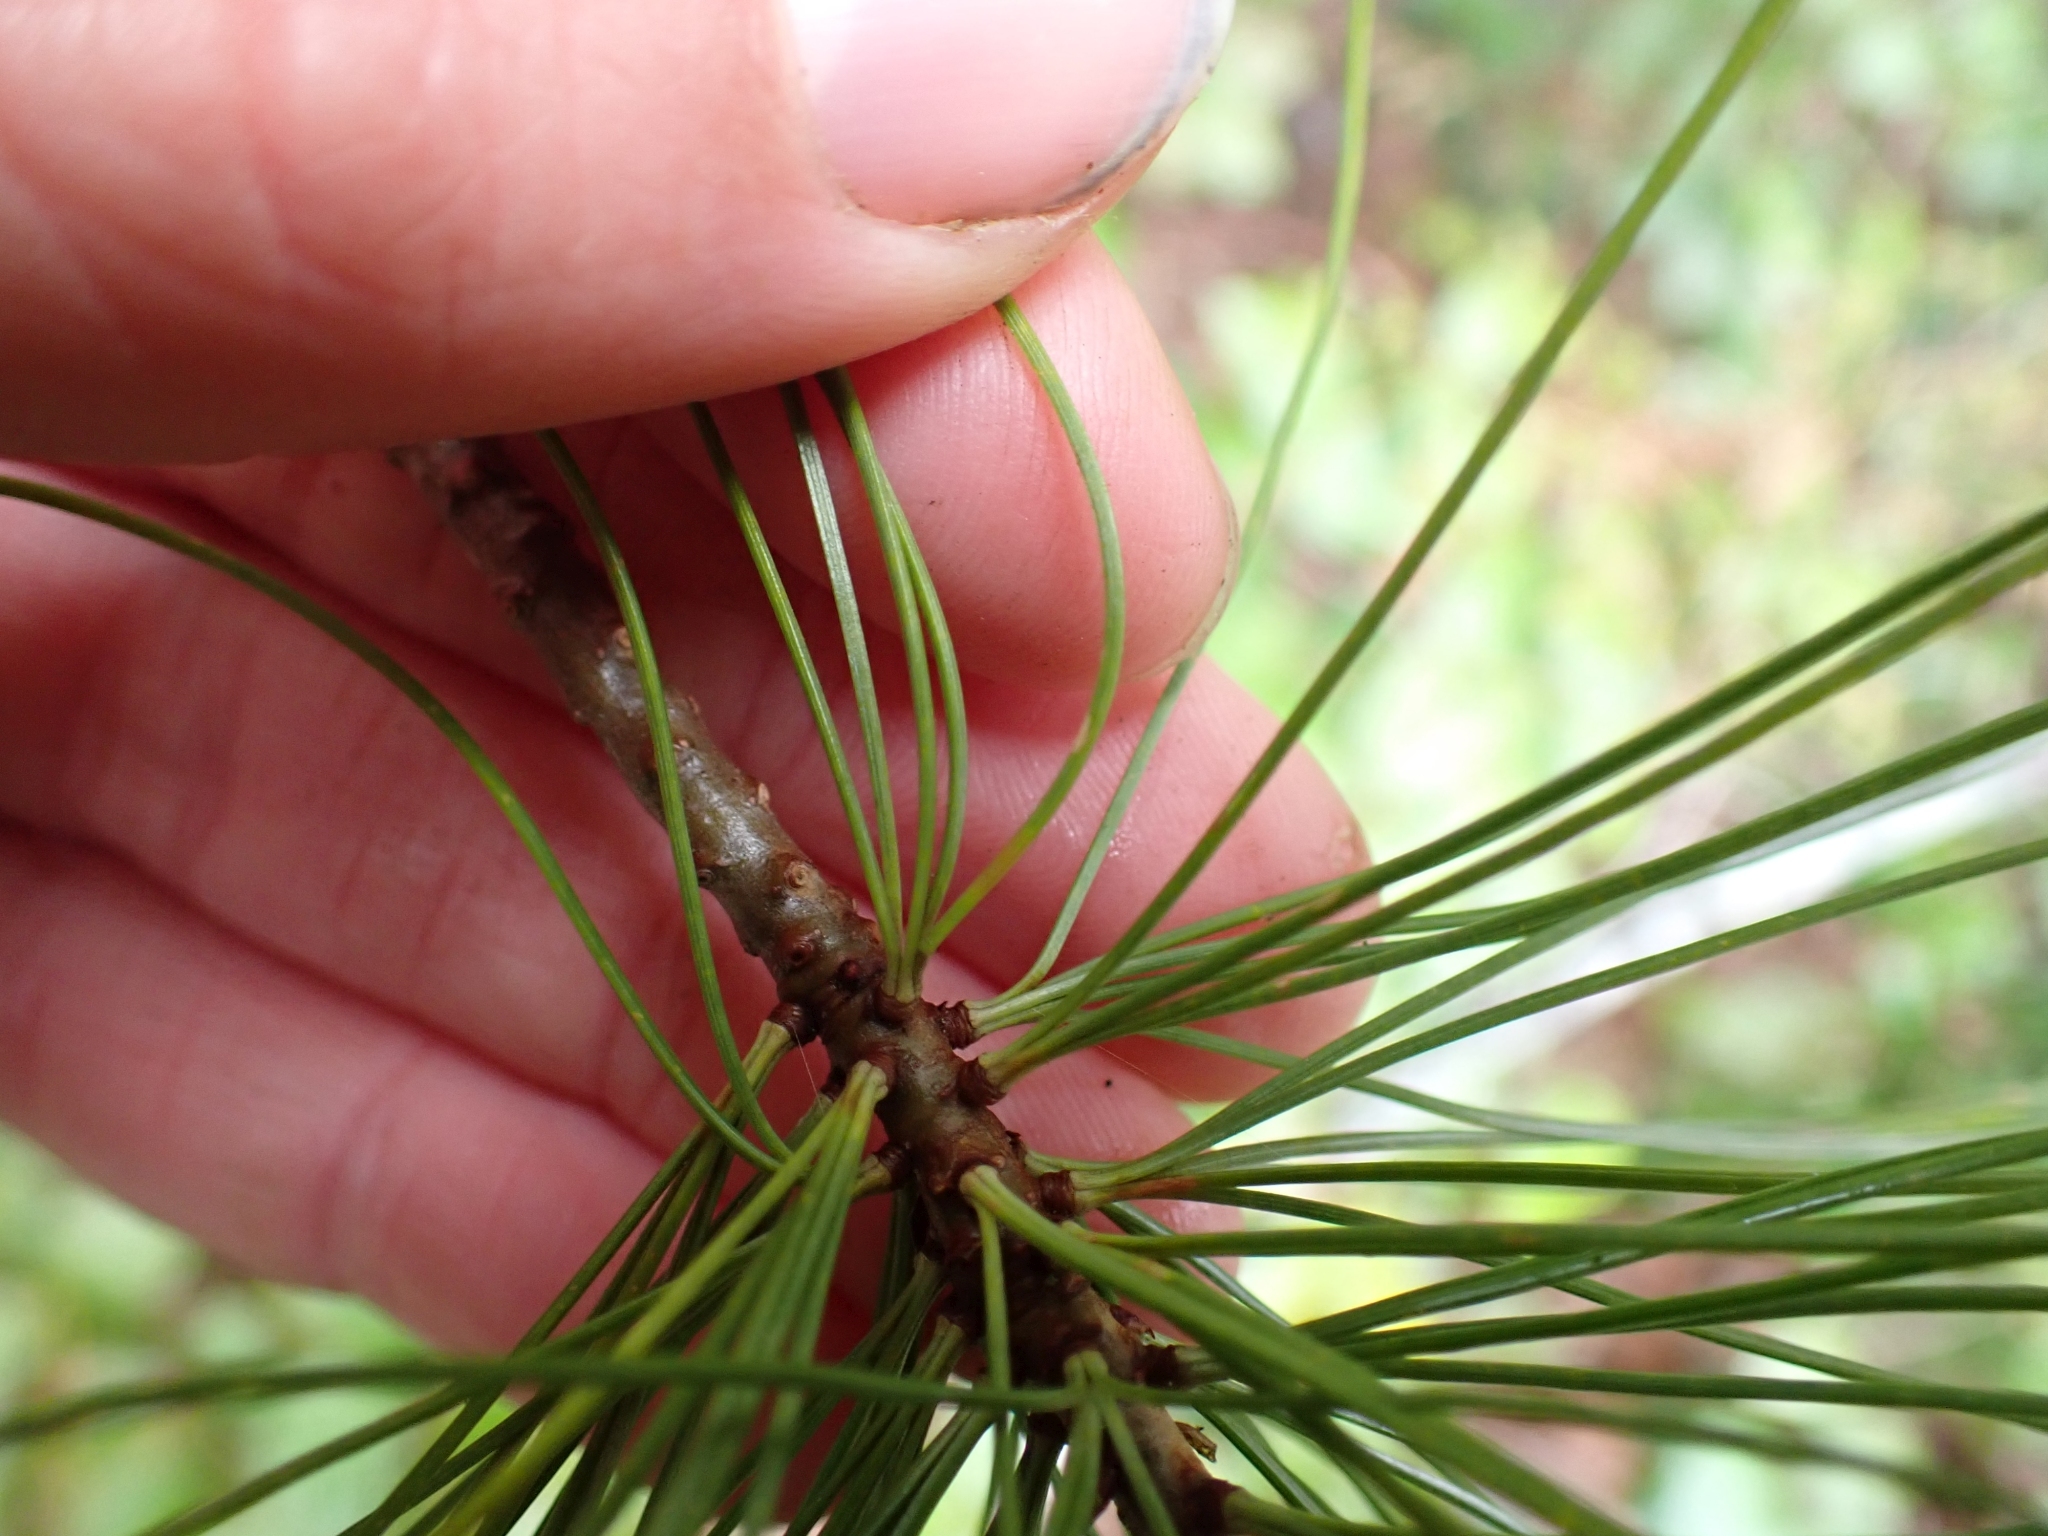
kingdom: Plantae
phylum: Tracheophyta
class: Pinopsida
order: Pinales
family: Pinaceae
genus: Pinus
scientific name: Pinus monticola
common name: Western white pine
